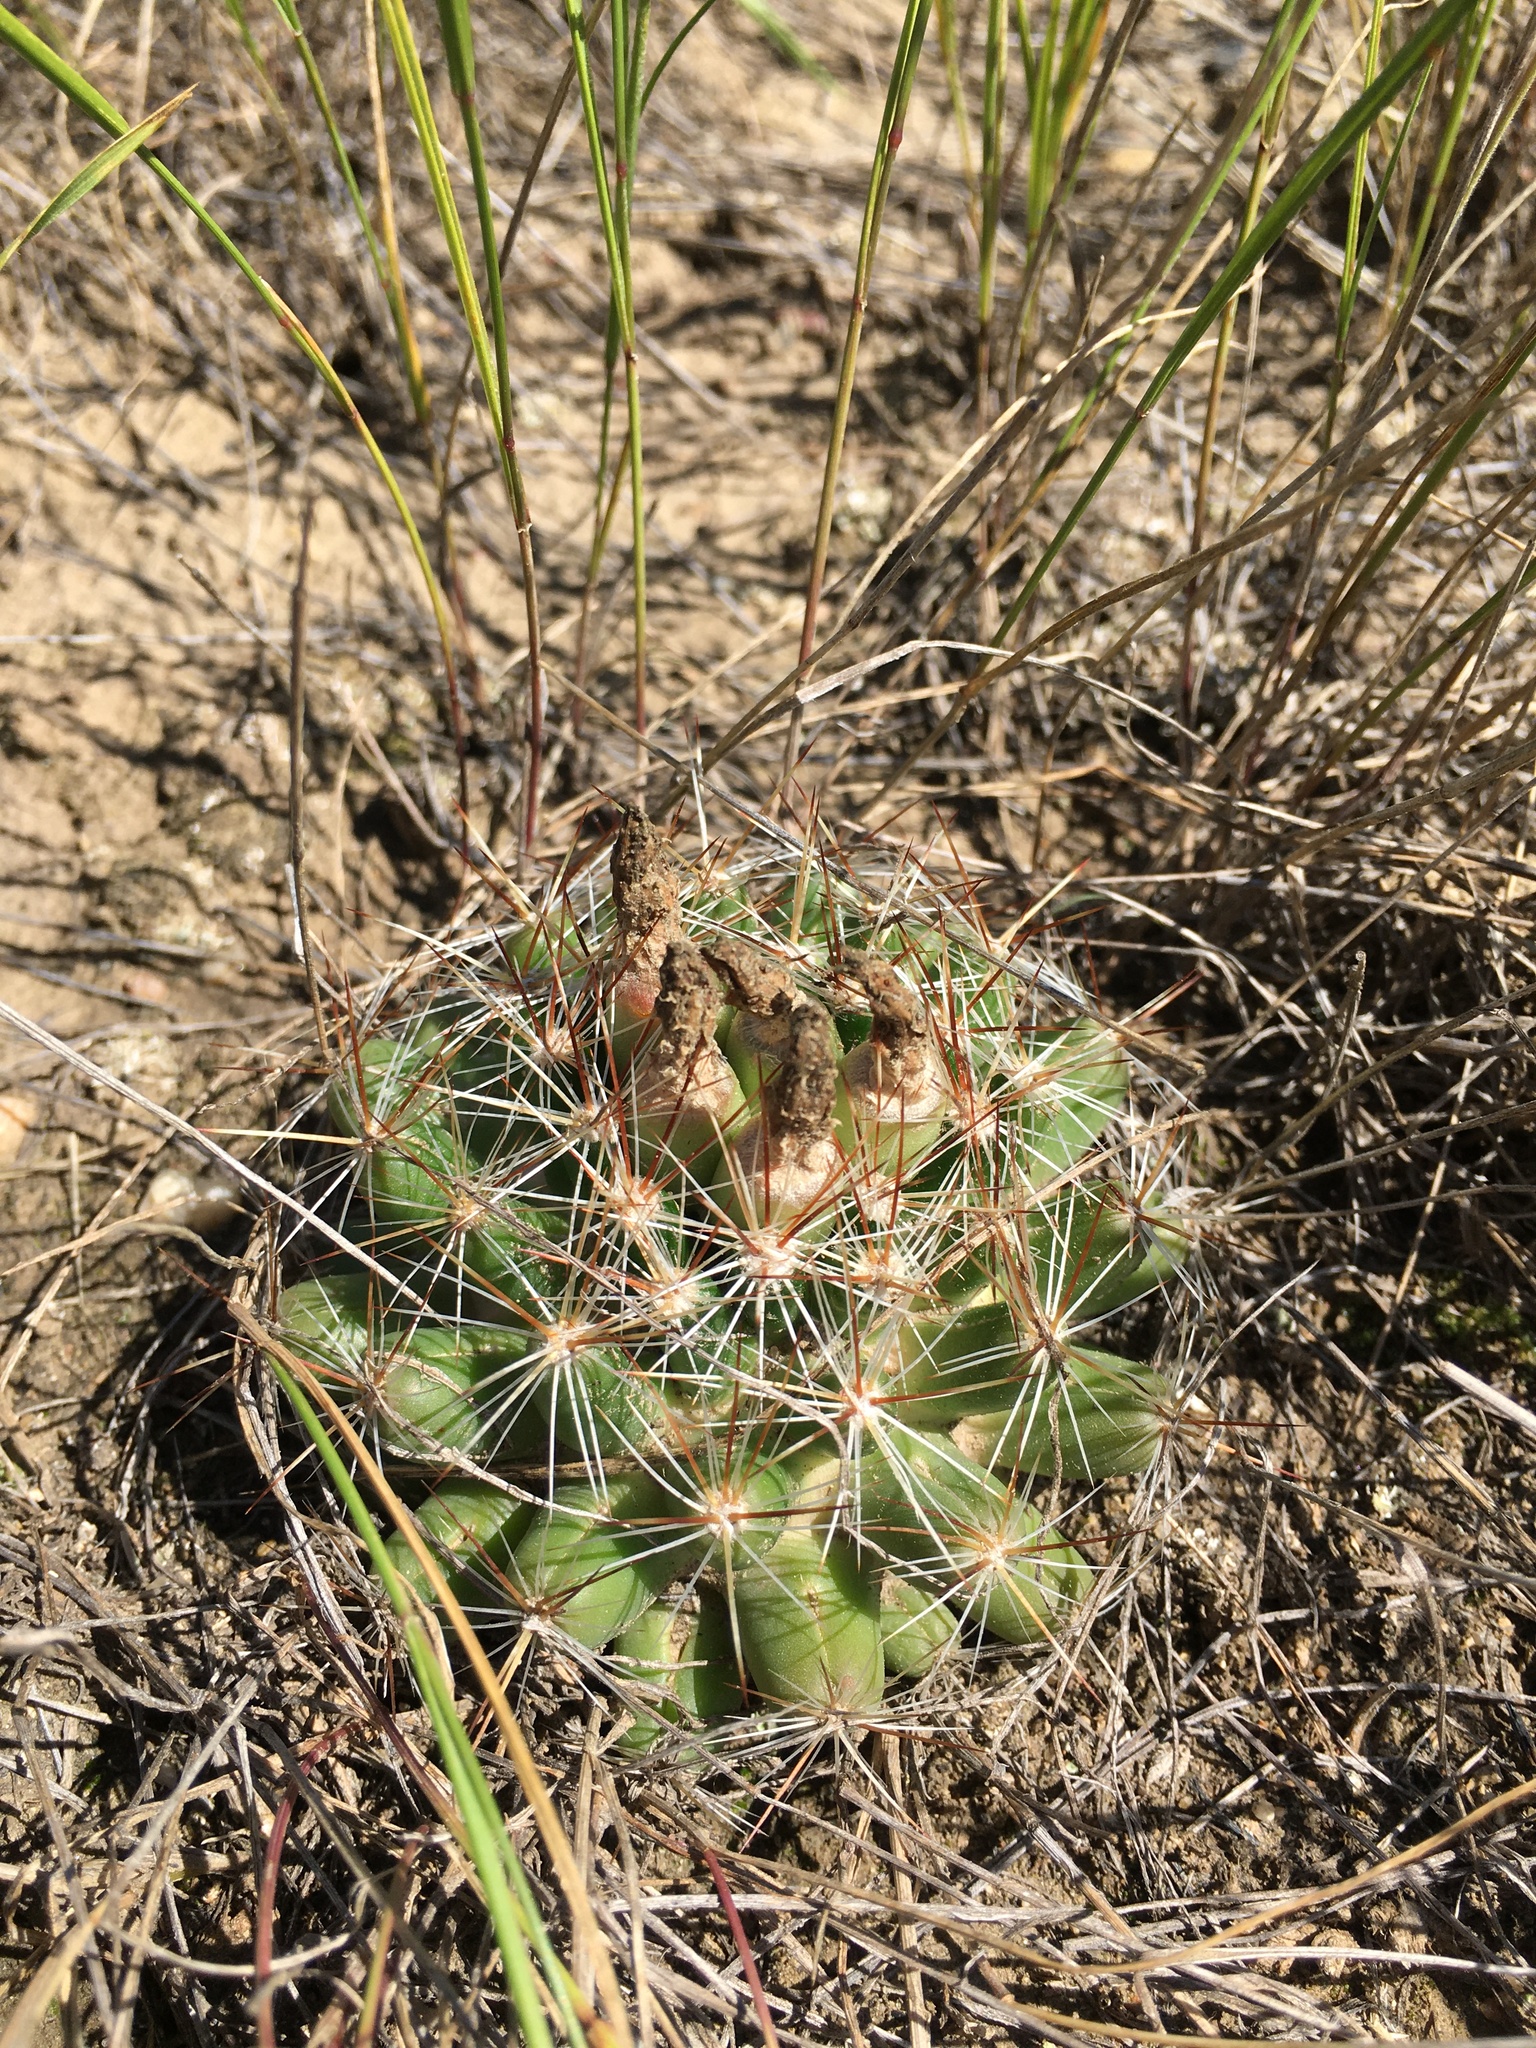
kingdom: Plantae
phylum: Tracheophyta
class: Magnoliopsida
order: Caryophyllales
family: Cactaceae
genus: Pelecyphora
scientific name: Pelecyphora vivipara
